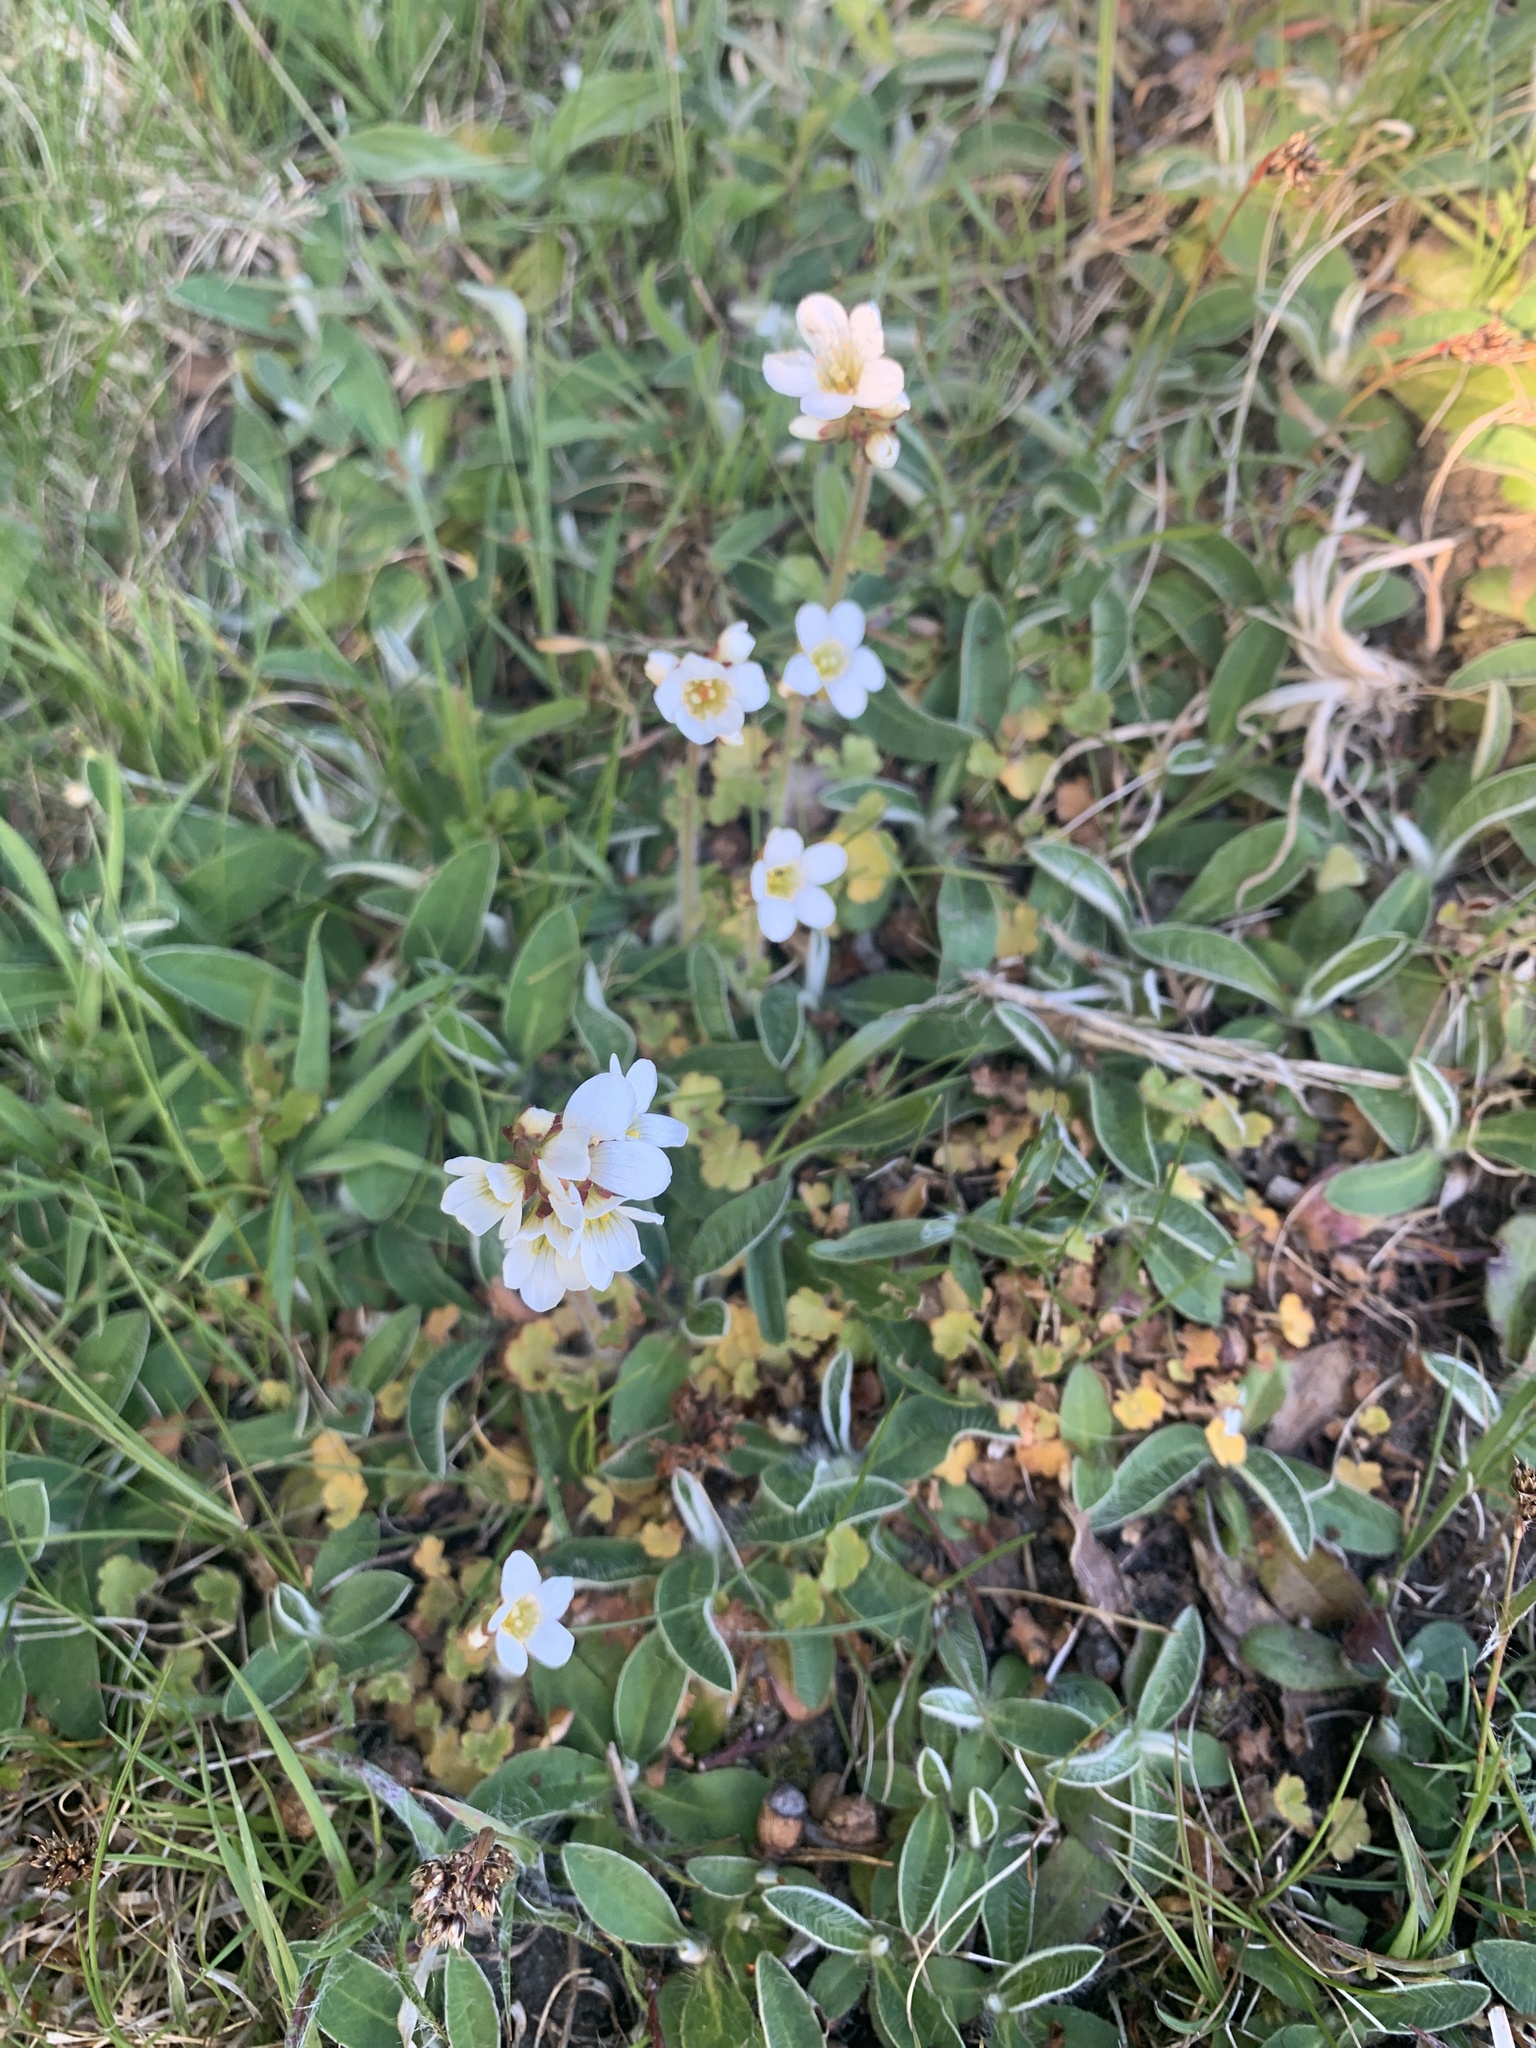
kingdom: Plantae
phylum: Tracheophyta
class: Magnoliopsida
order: Saxifragales
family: Saxifragaceae
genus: Saxifraga
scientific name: Saxifraga granulata
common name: Meadow saxifrage
